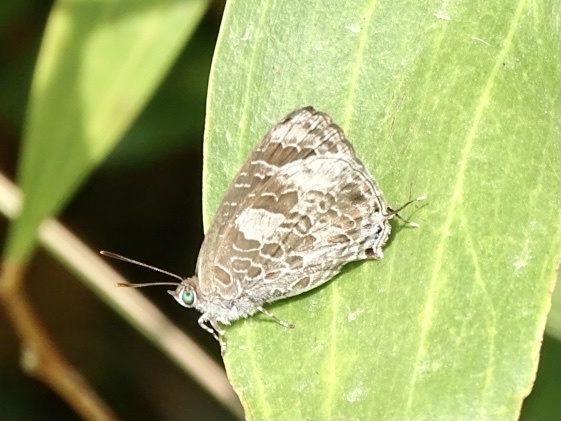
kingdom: Animalia
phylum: Arthropoda
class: Insecta
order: Lepidoptera
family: Lycaenidae
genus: Arhopala
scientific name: Arhopala birmana
